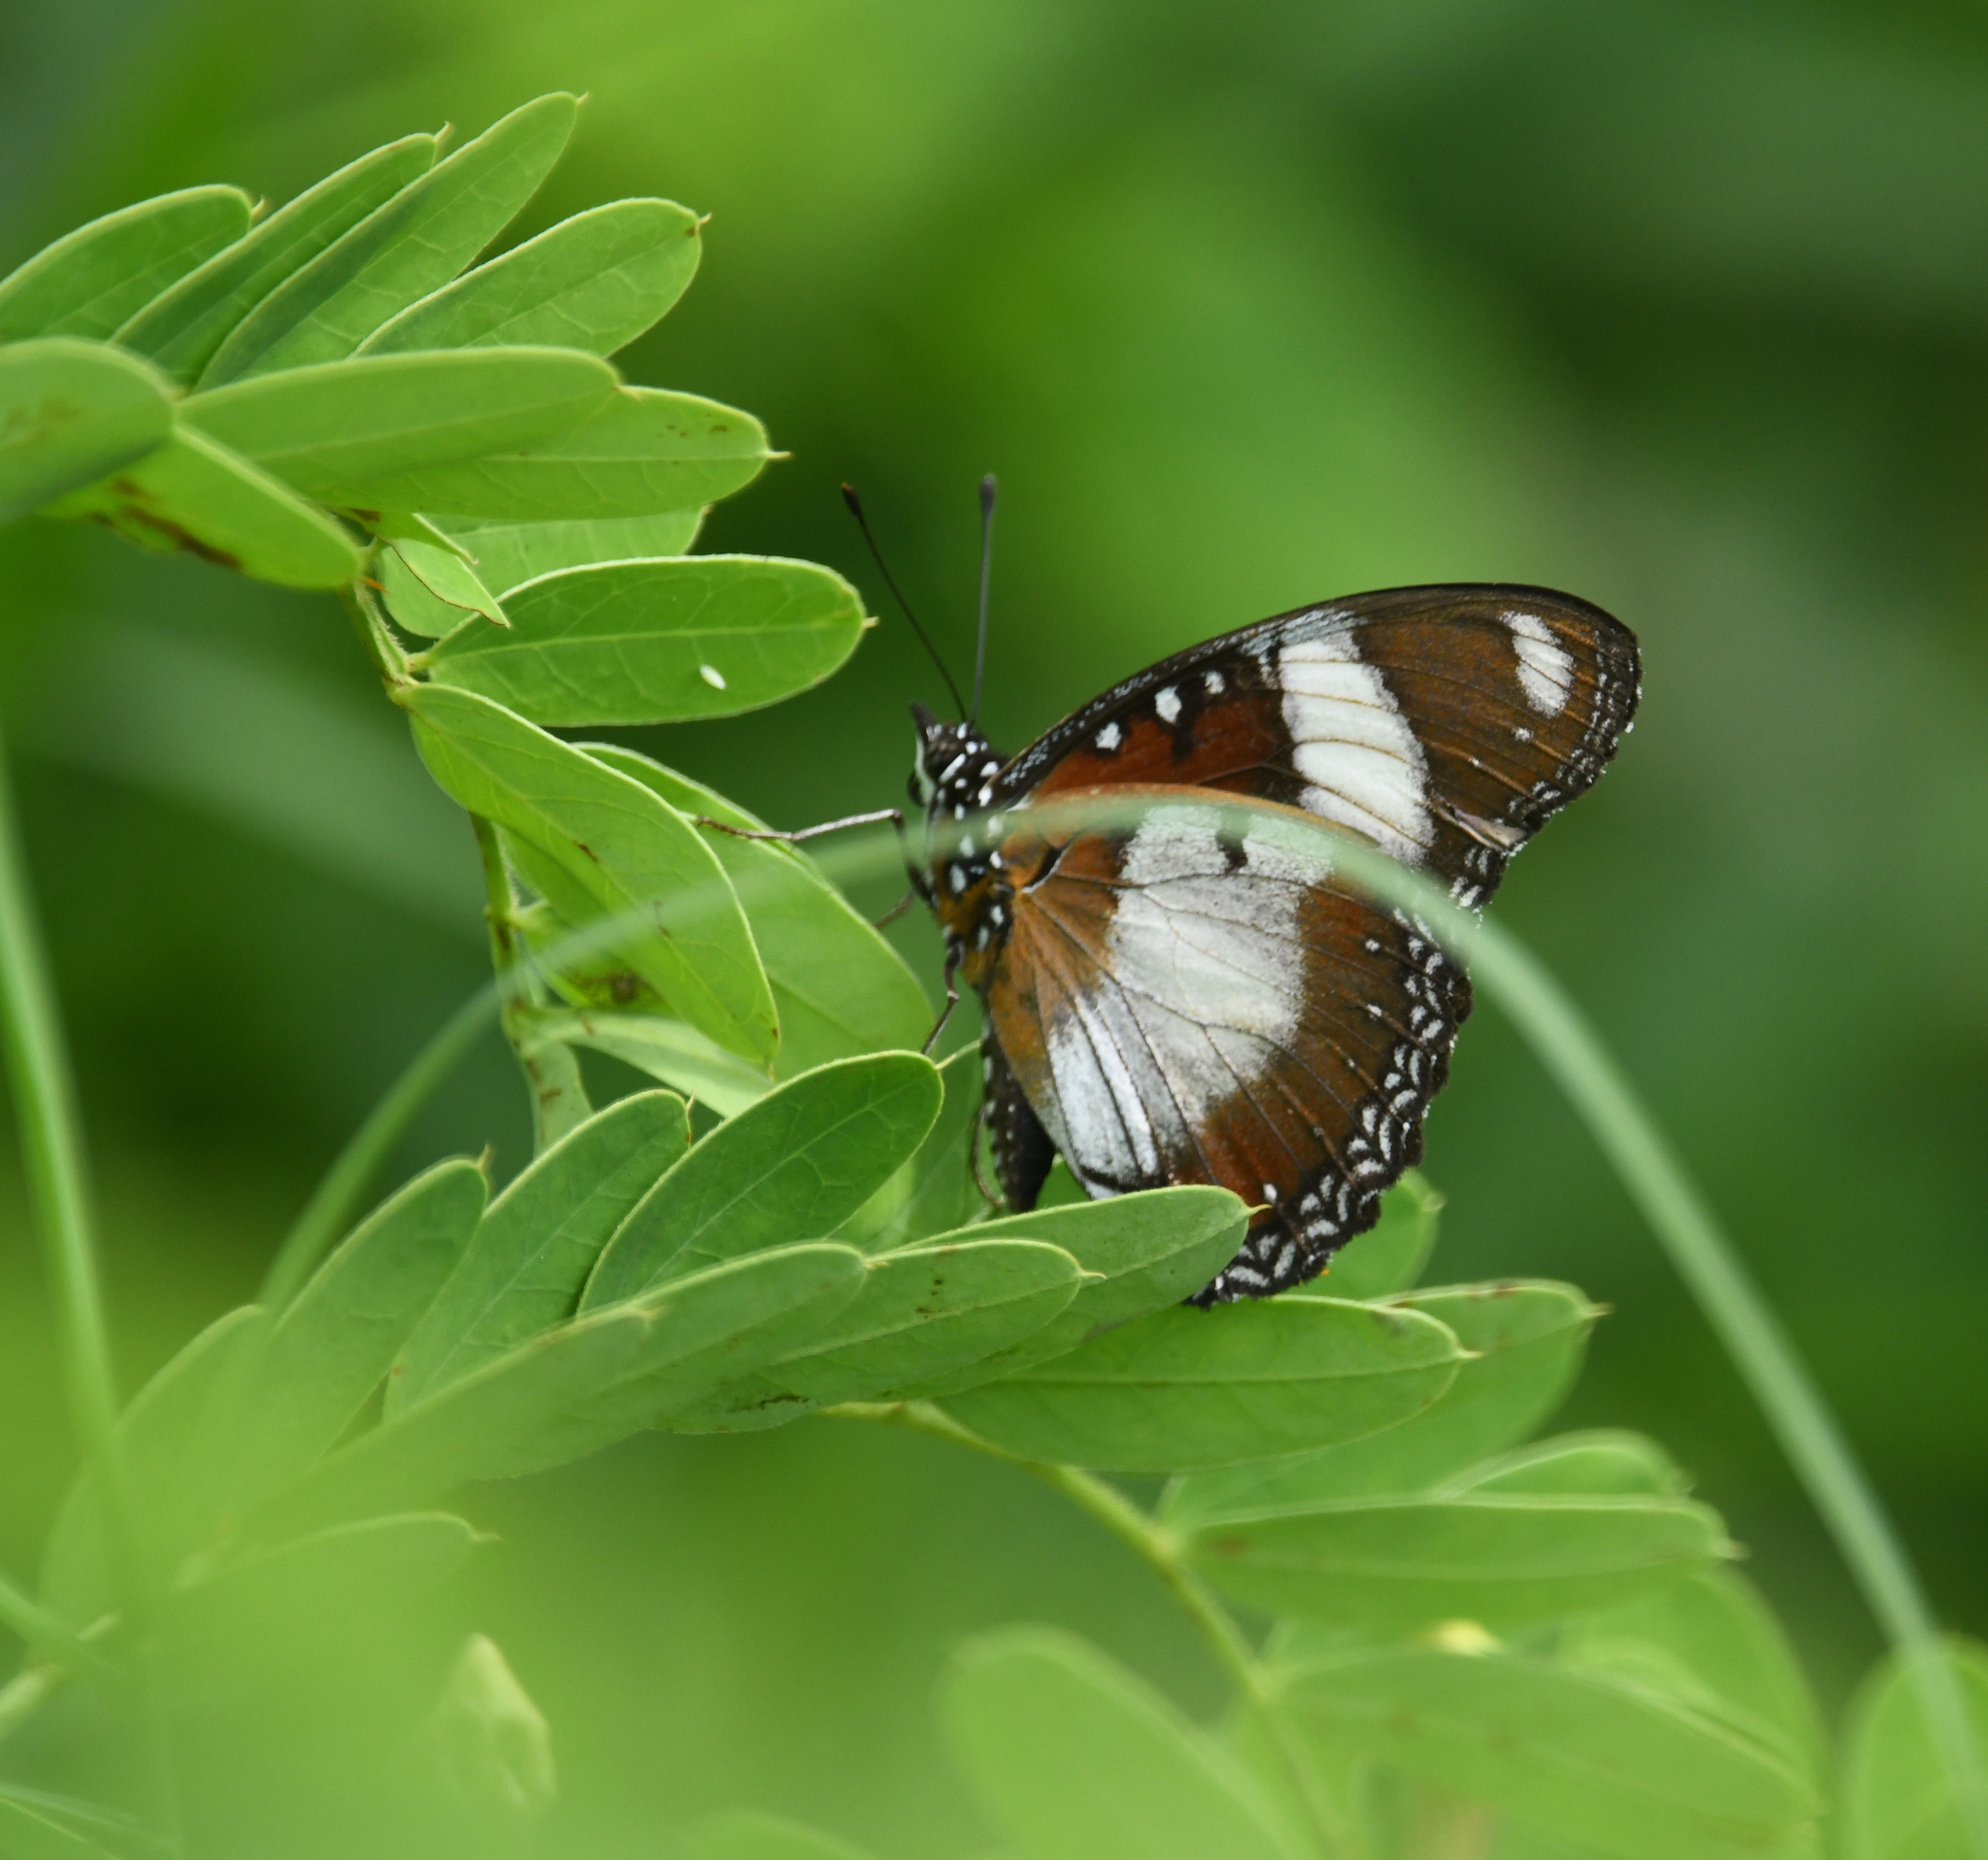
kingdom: Animalia
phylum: Arthropoda
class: Insecta
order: Lepidoptera
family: Nymphalidae
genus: Hypolimnas
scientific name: Hypolimnas misippus
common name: False plain tiger
